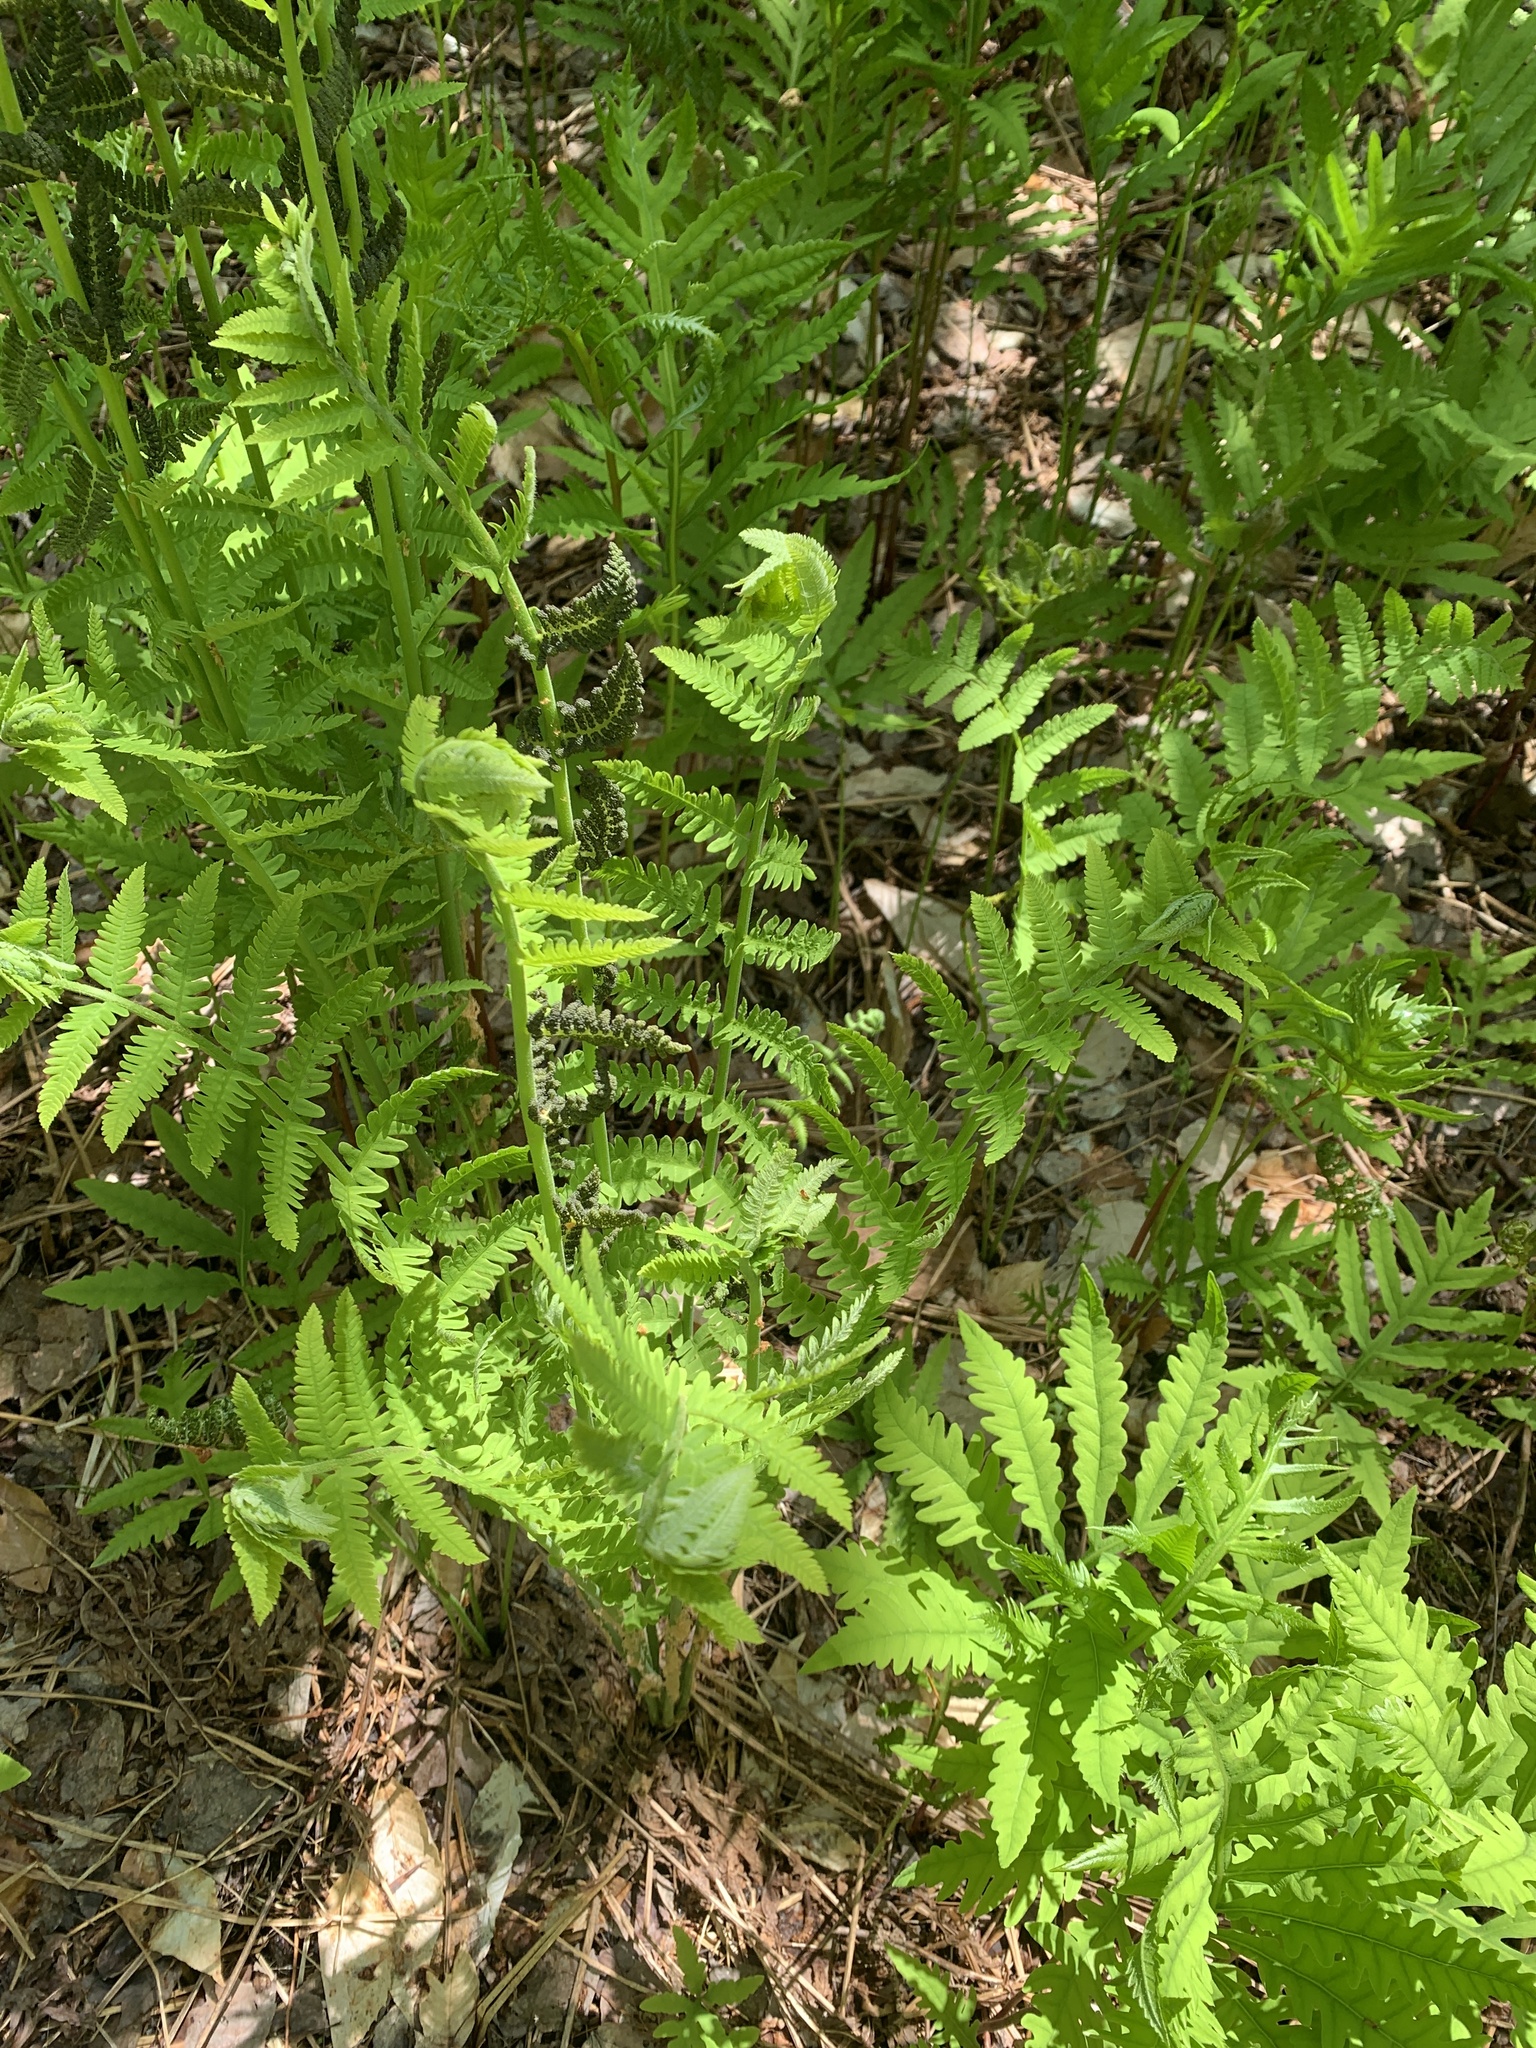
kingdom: Plantae
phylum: Tracheophyta
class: Polypodiopsida
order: Osmundales
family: Osmundaceae
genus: Claytosmunda
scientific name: Claytosmunda claytoniana
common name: Clayton's fern
